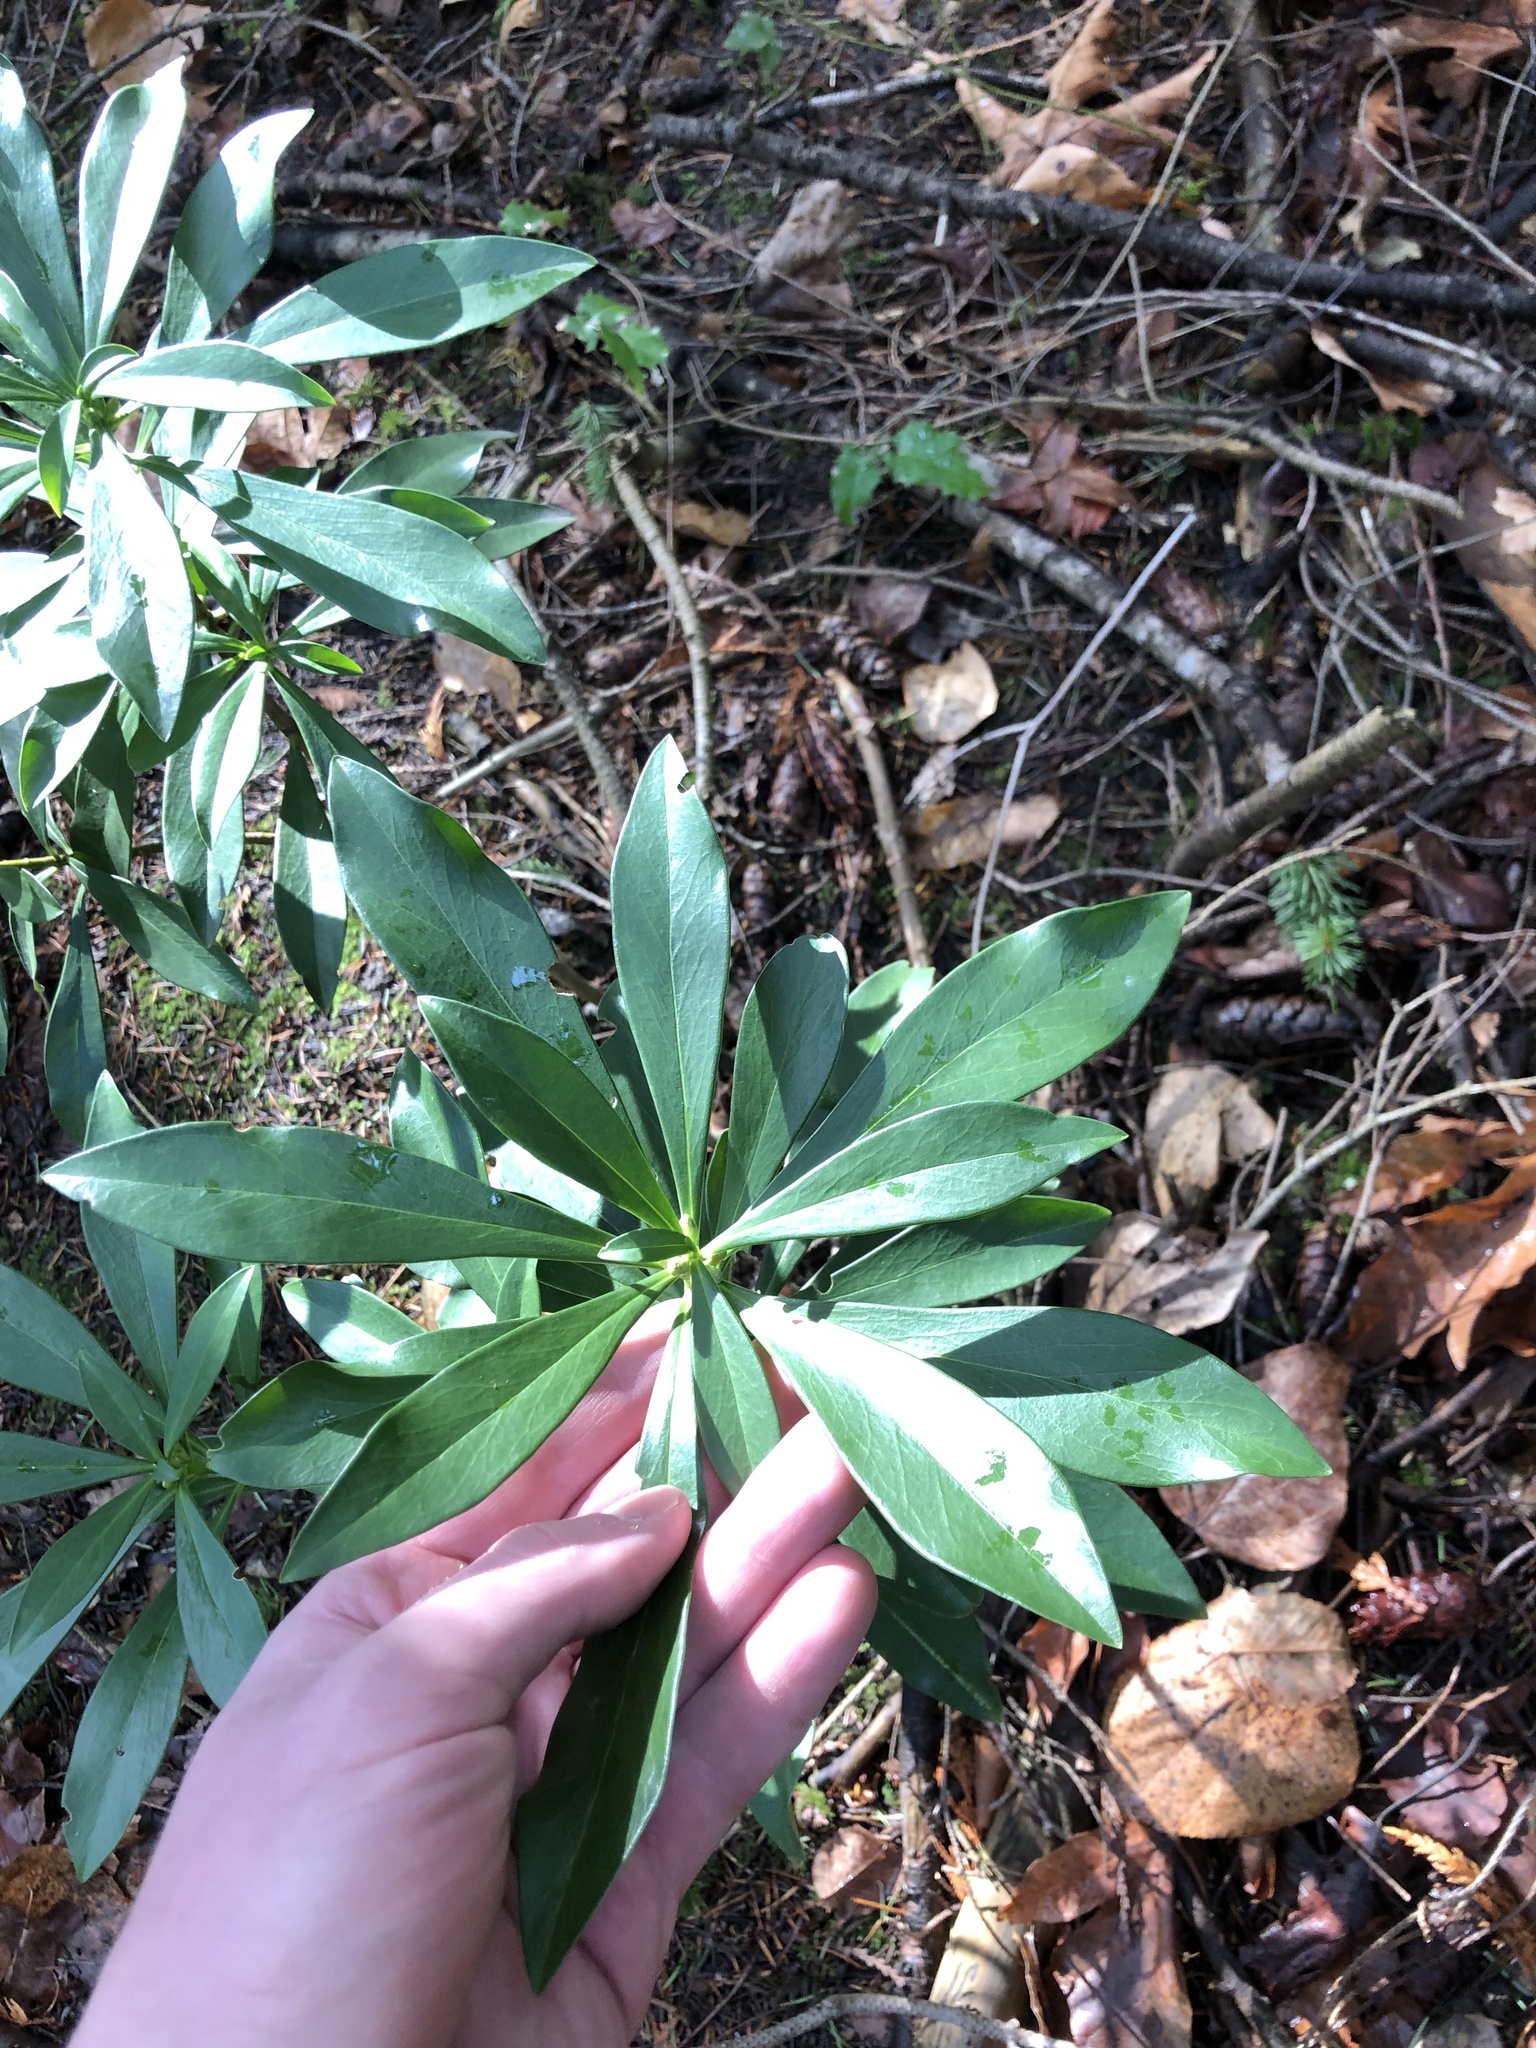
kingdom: Plantae
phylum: Tracheophyta
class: Magnoliopsida
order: Malvales
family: Thymelaeaceae
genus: Daphne
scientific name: Daphne laureola
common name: Spurge-laurel
